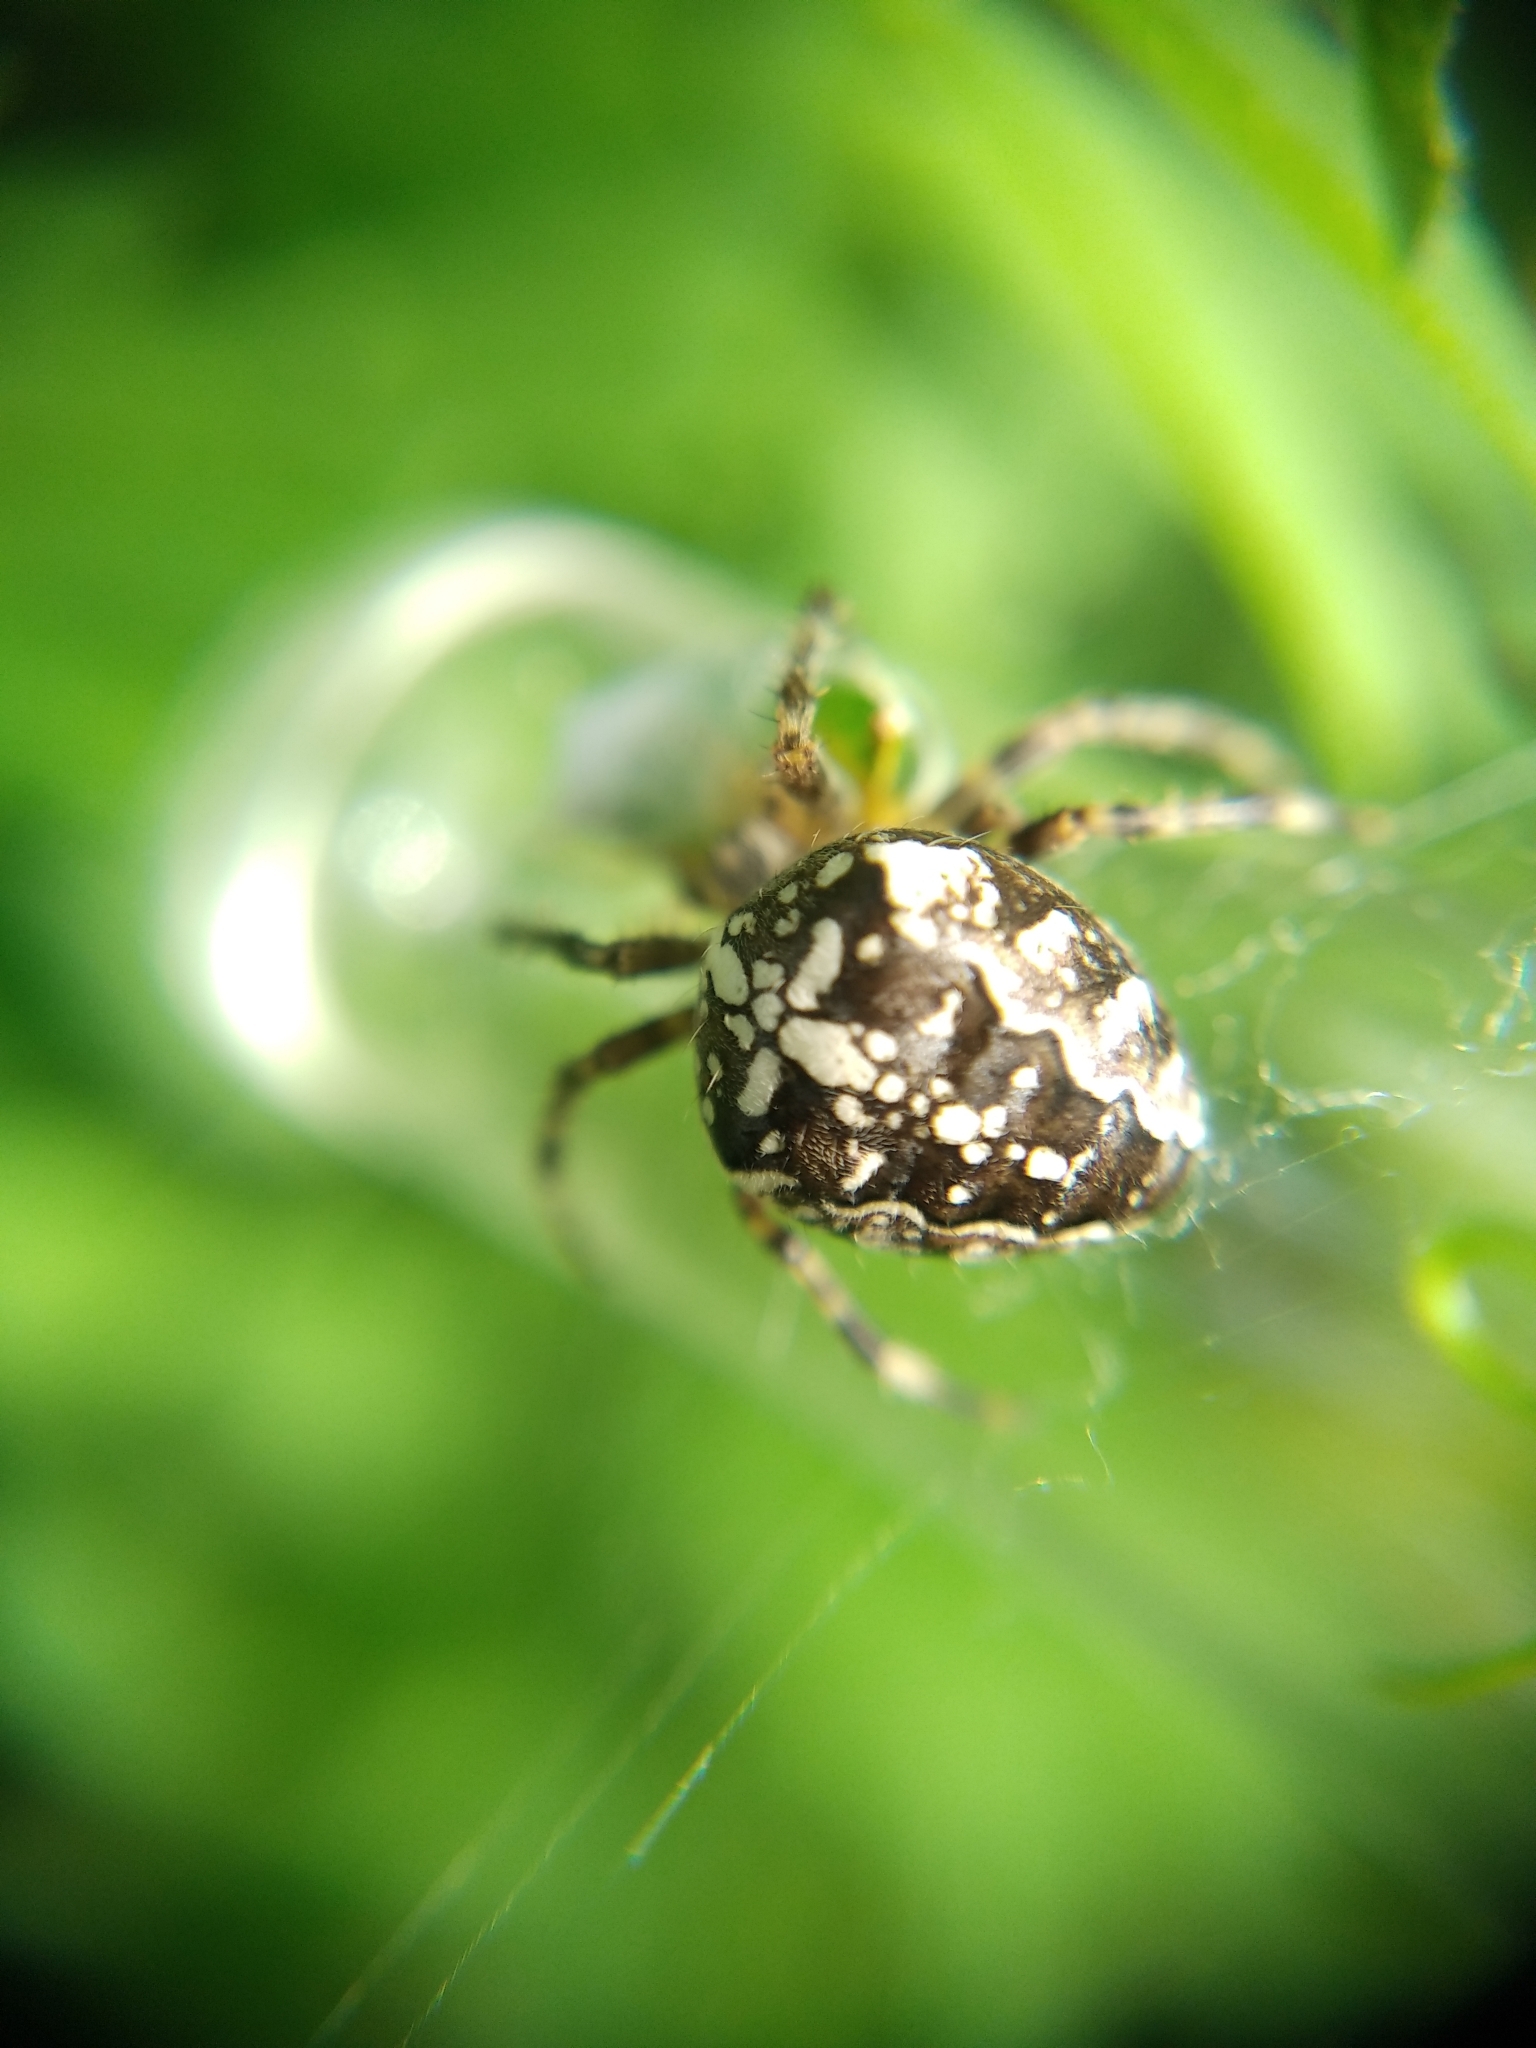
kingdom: Animalia
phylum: Arthropoda
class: Arachnida
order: Araneae
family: Araneidae
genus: Araneus
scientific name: Araneus diadematus
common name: Cross orbweaver
